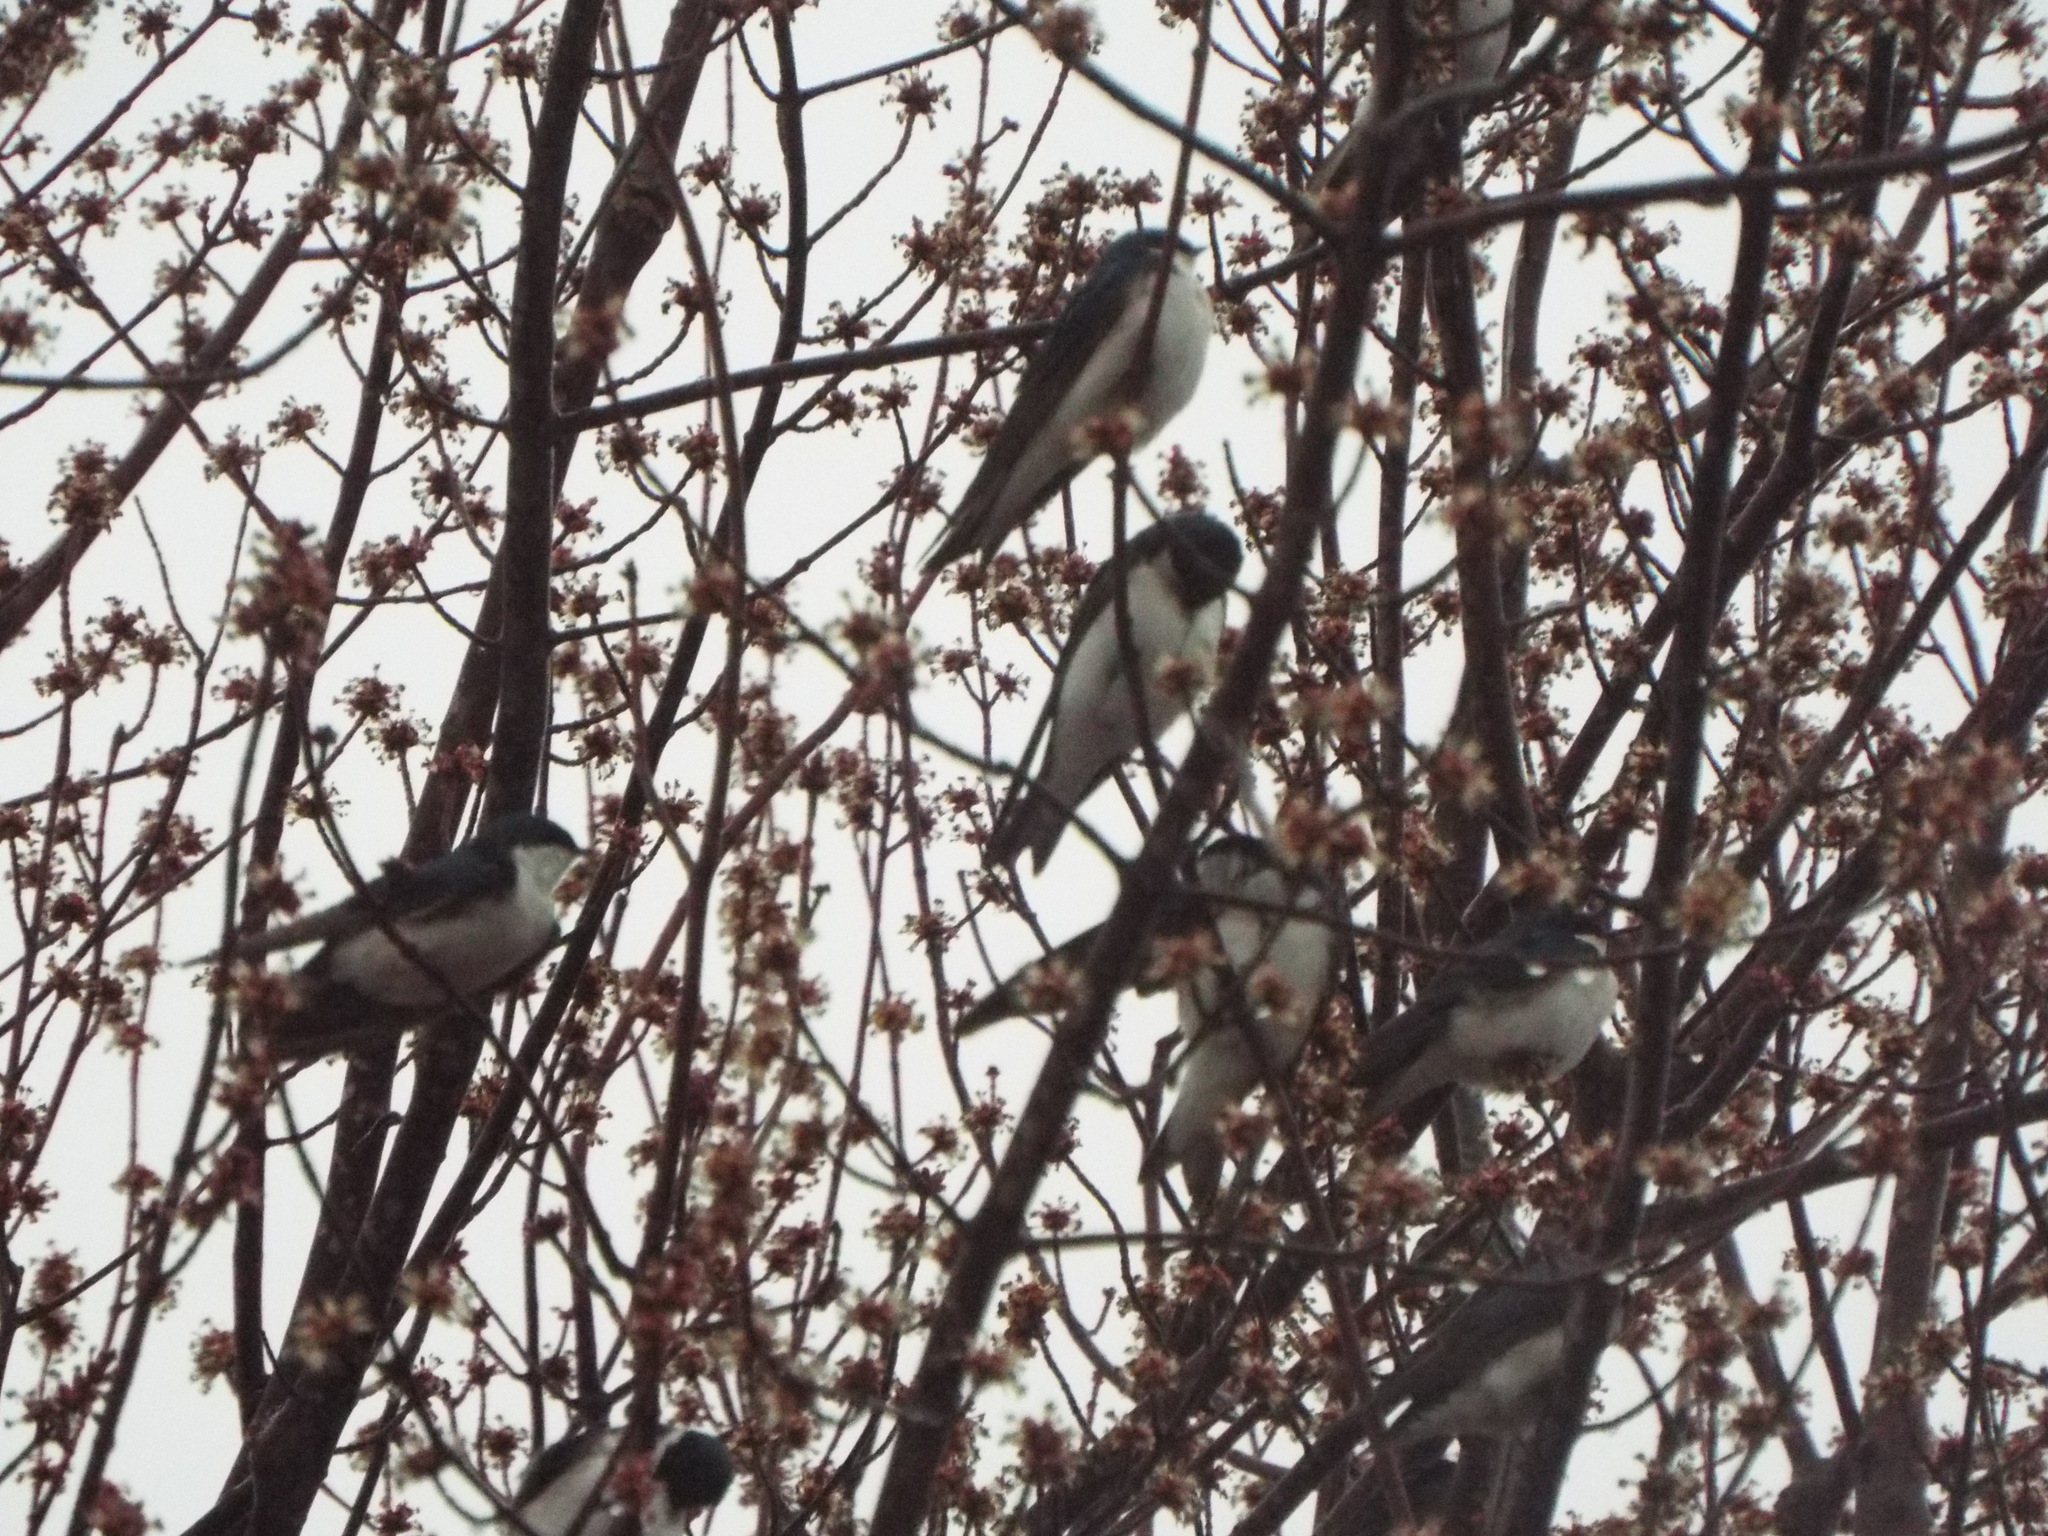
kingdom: Animalia
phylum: Chordata
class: Aves
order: Passeriformes
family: Hirundinidae
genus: Tachycineta
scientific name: Tachycineta bicolor
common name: Tree swallow
